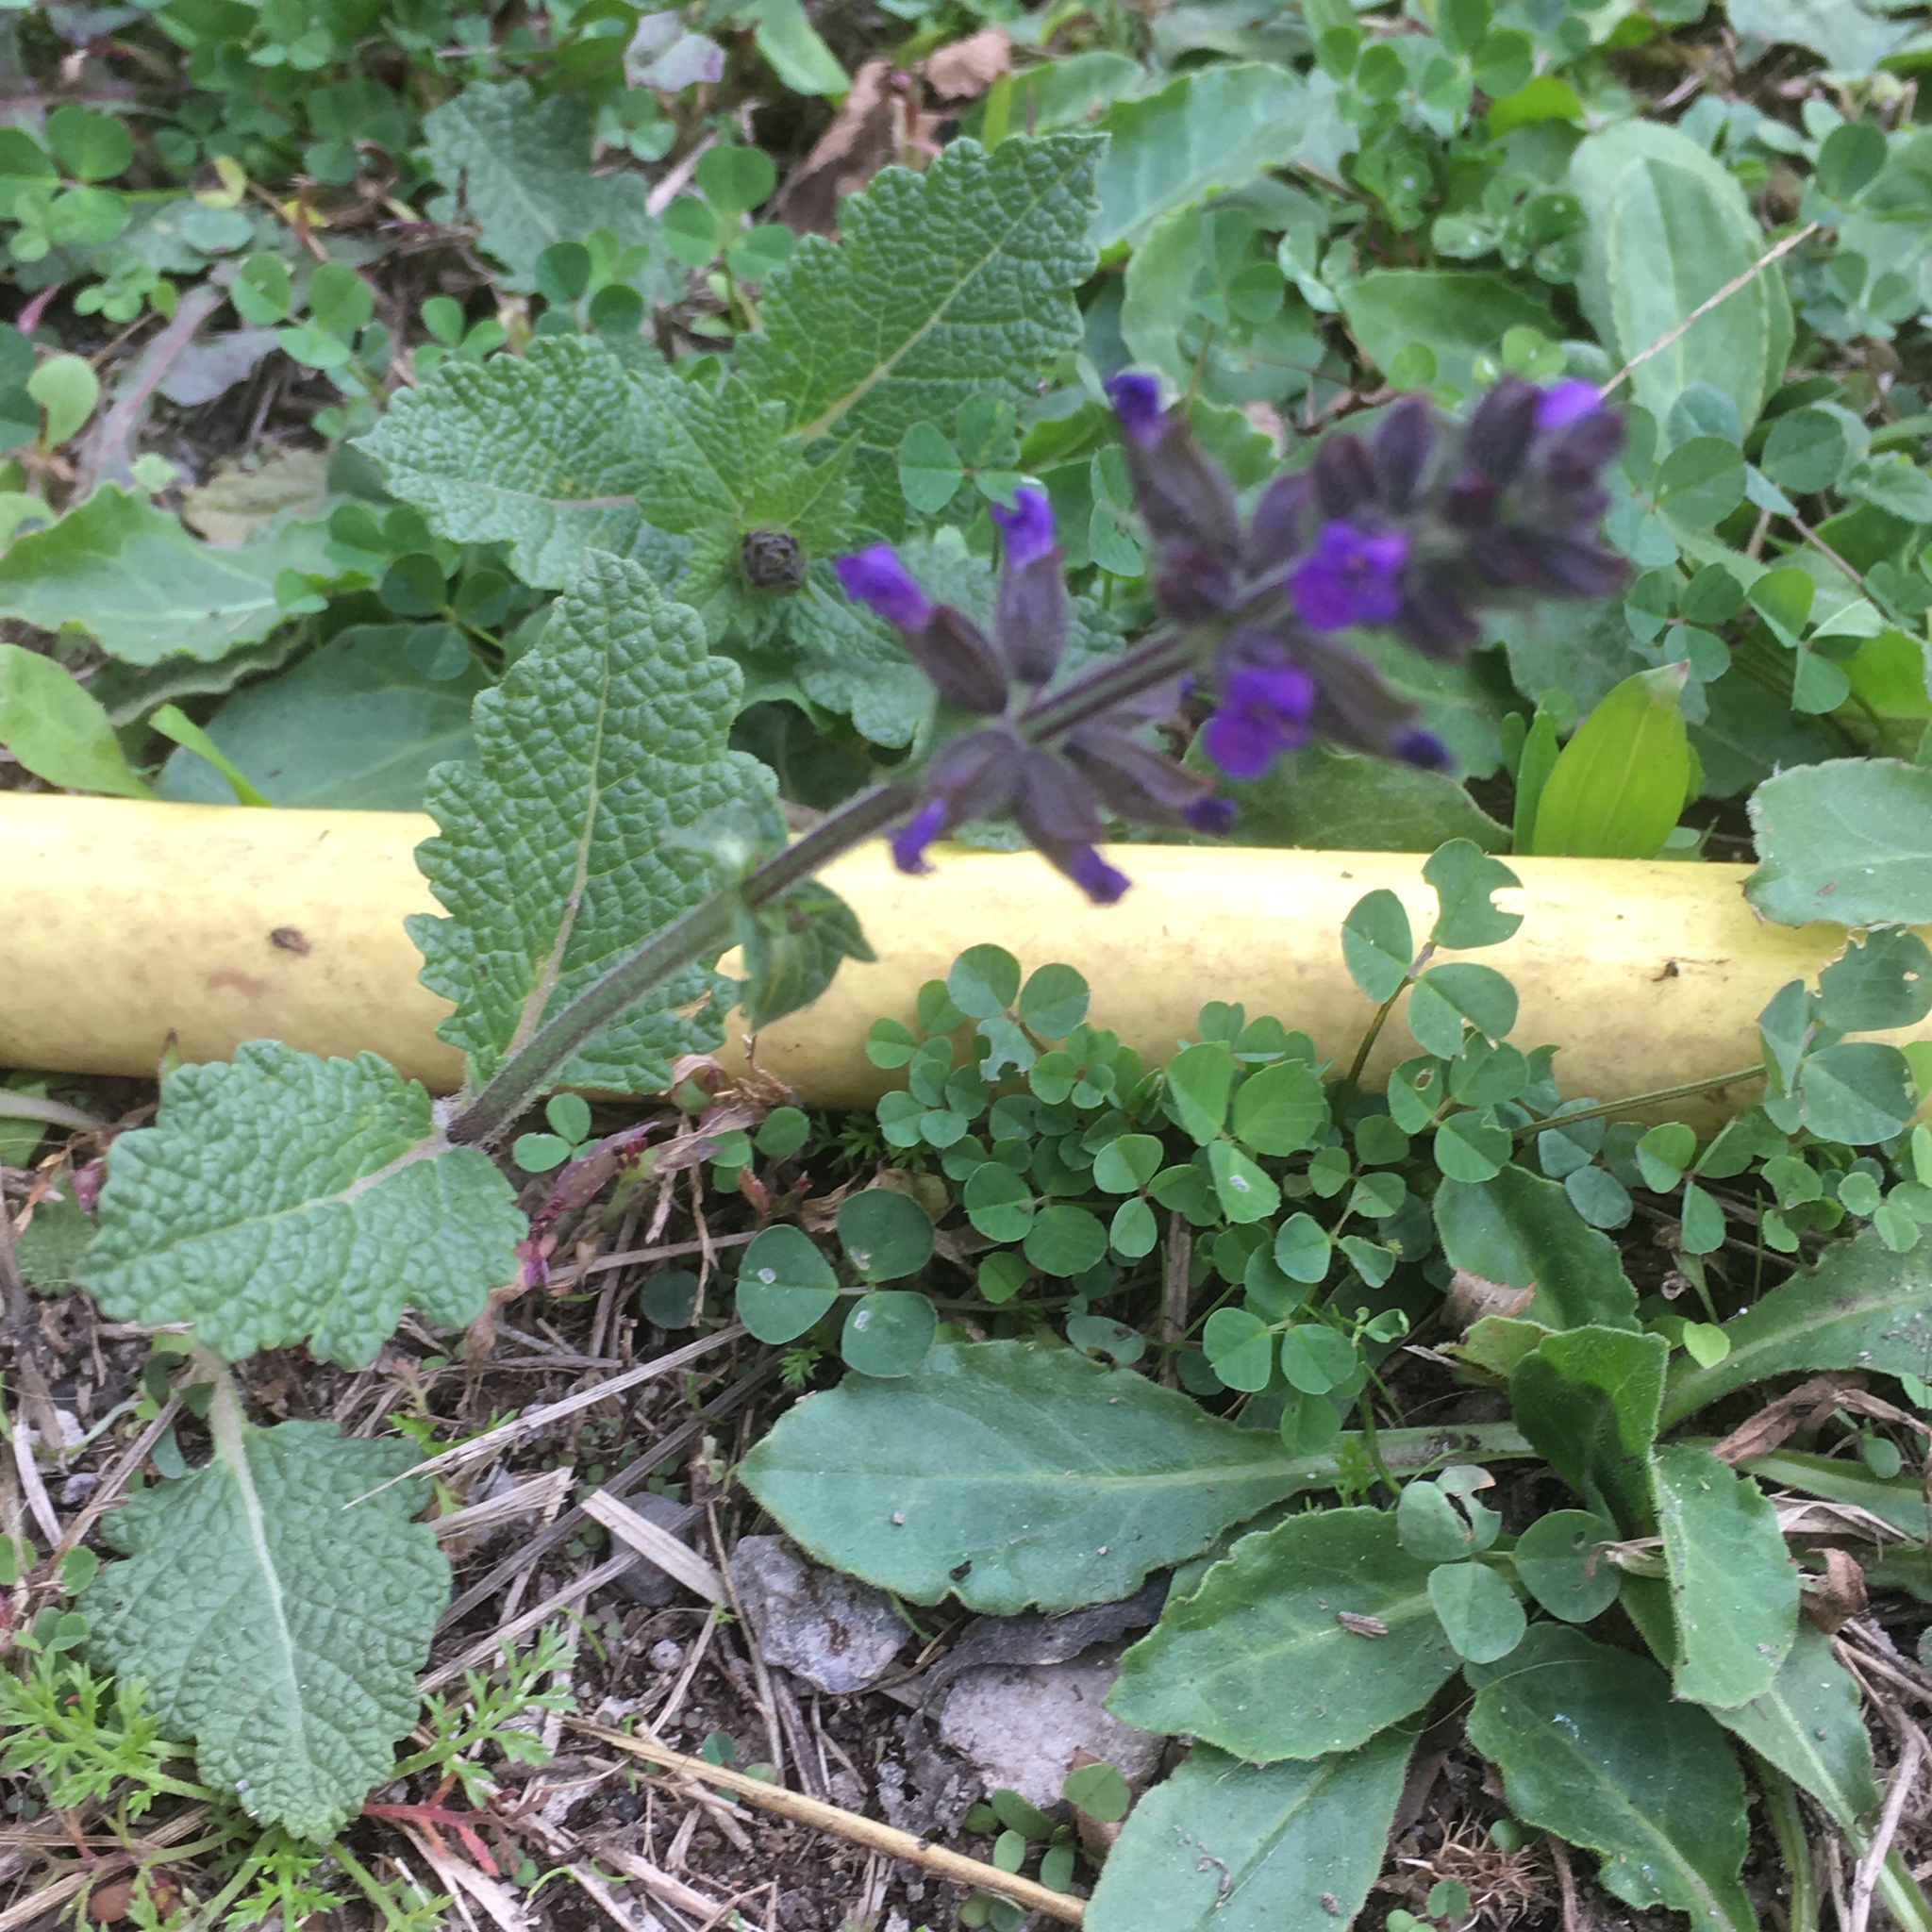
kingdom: Plantae
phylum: Tracheophyta
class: Magnoliopsida
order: Lamiales
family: Lamiaceae
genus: Salvia
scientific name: Salvia verbenaca
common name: Wild clary
